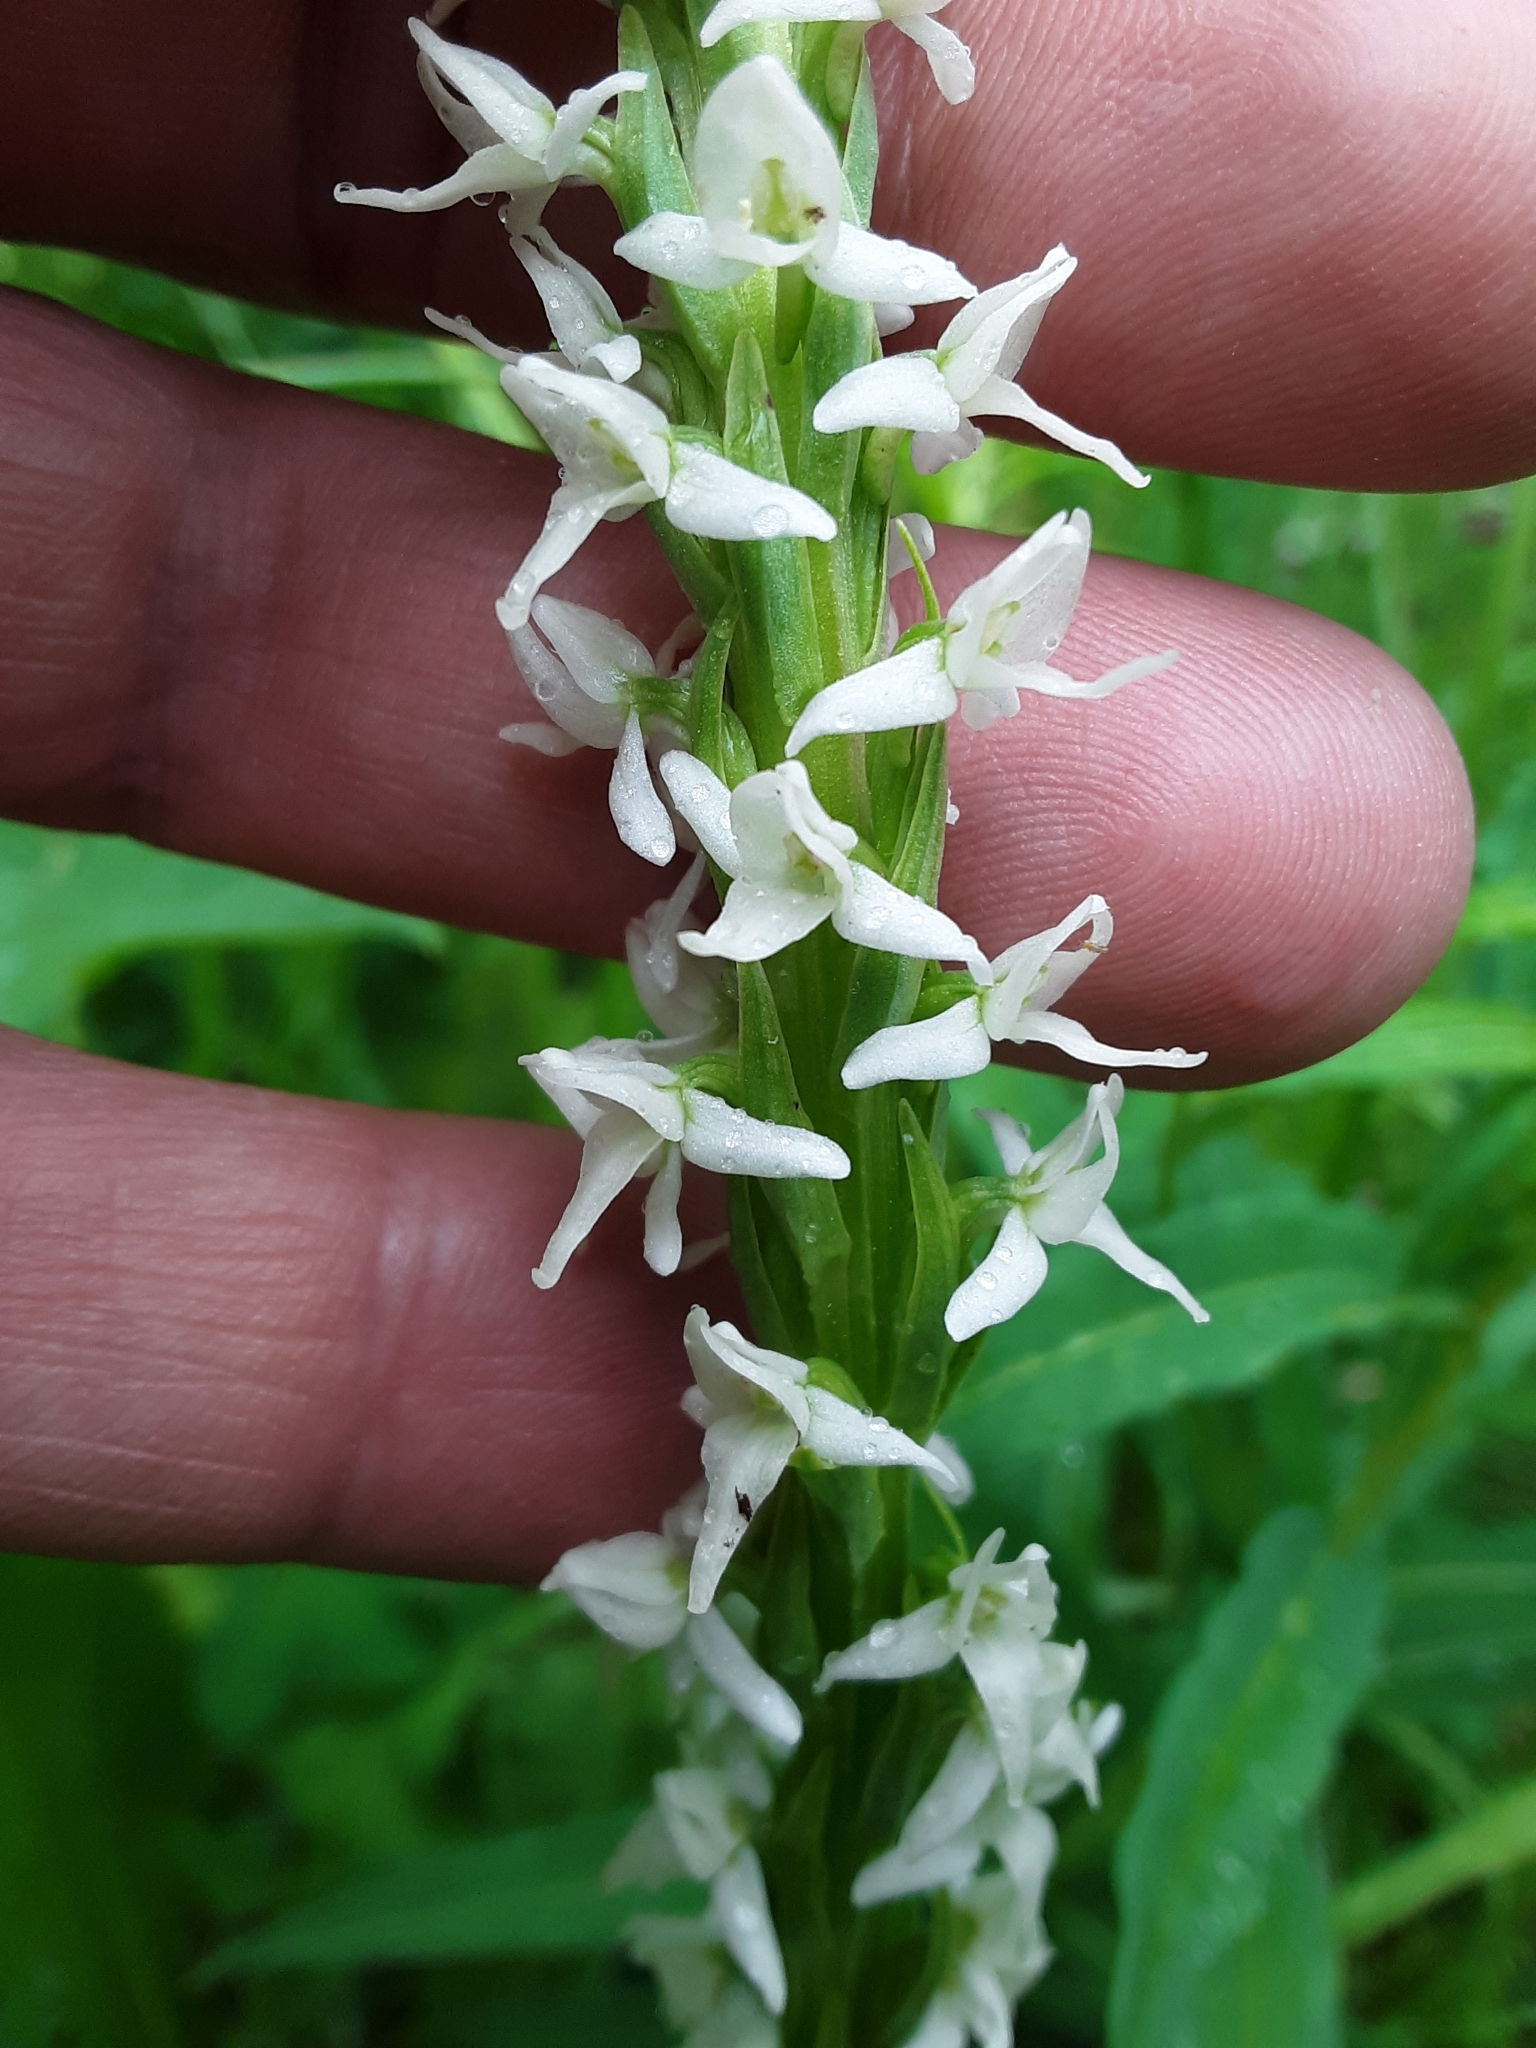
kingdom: Plantae
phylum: Tracheophyta
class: Liliopsida
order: Asparagales
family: Orchidaceae
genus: Platanthera
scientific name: Platanthera dilatata
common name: Bog candles
